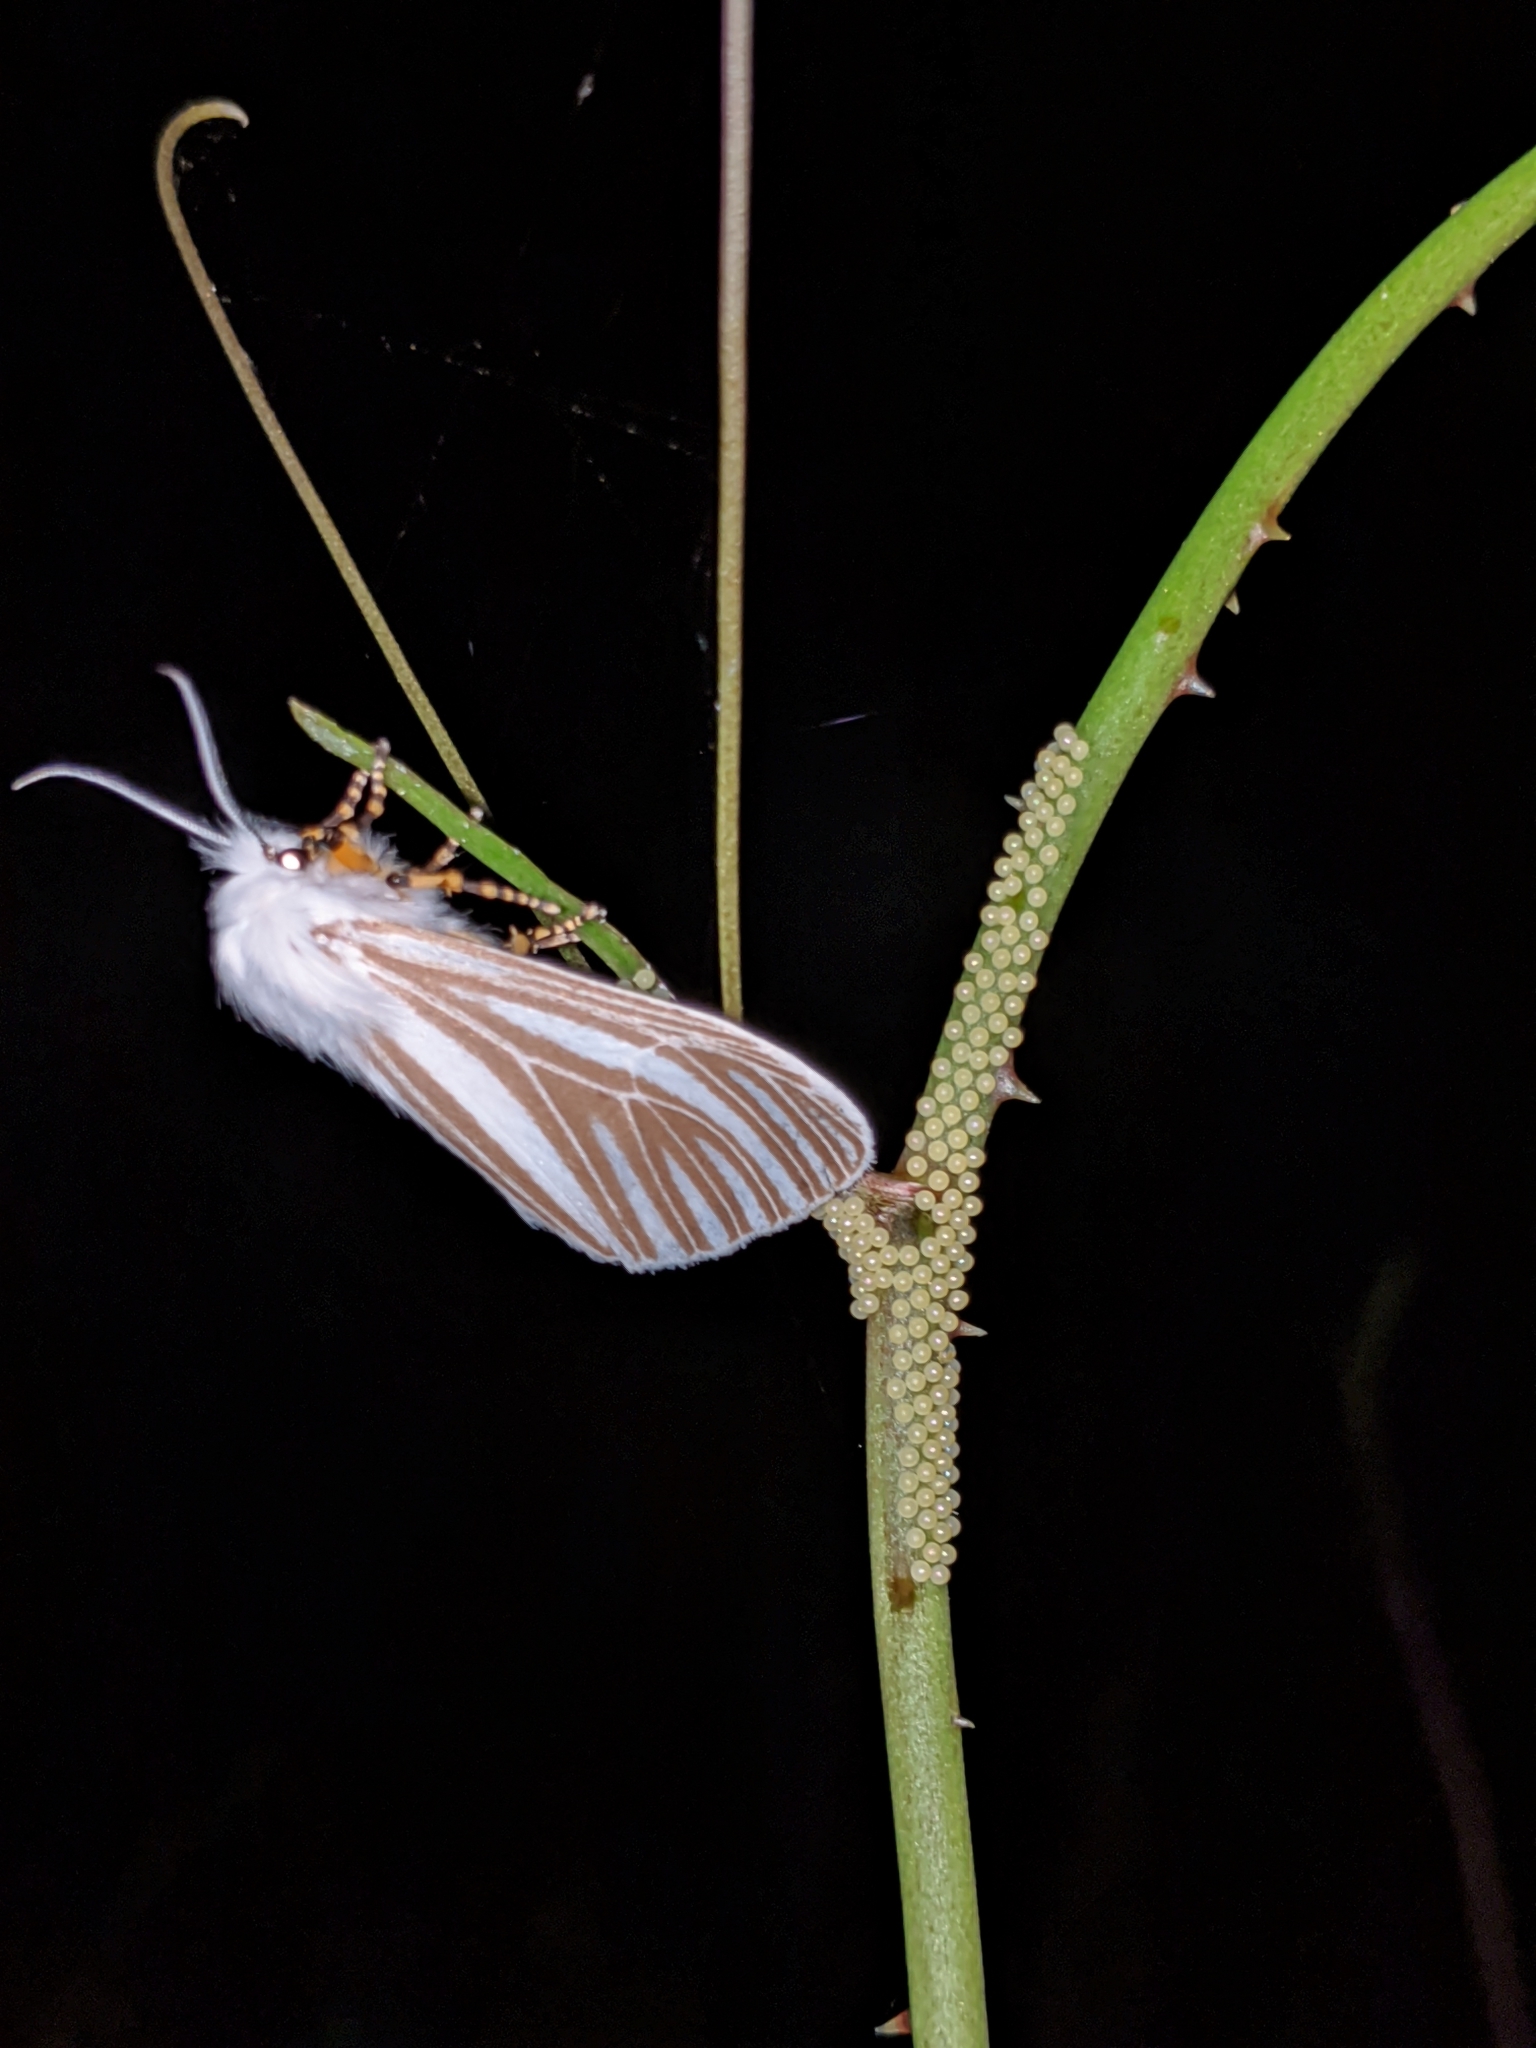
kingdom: Animalia
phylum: Arthropoda
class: Insecta
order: Lepidoptera
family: Erebidae
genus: Seirarctia
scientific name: Seirarctia echo
